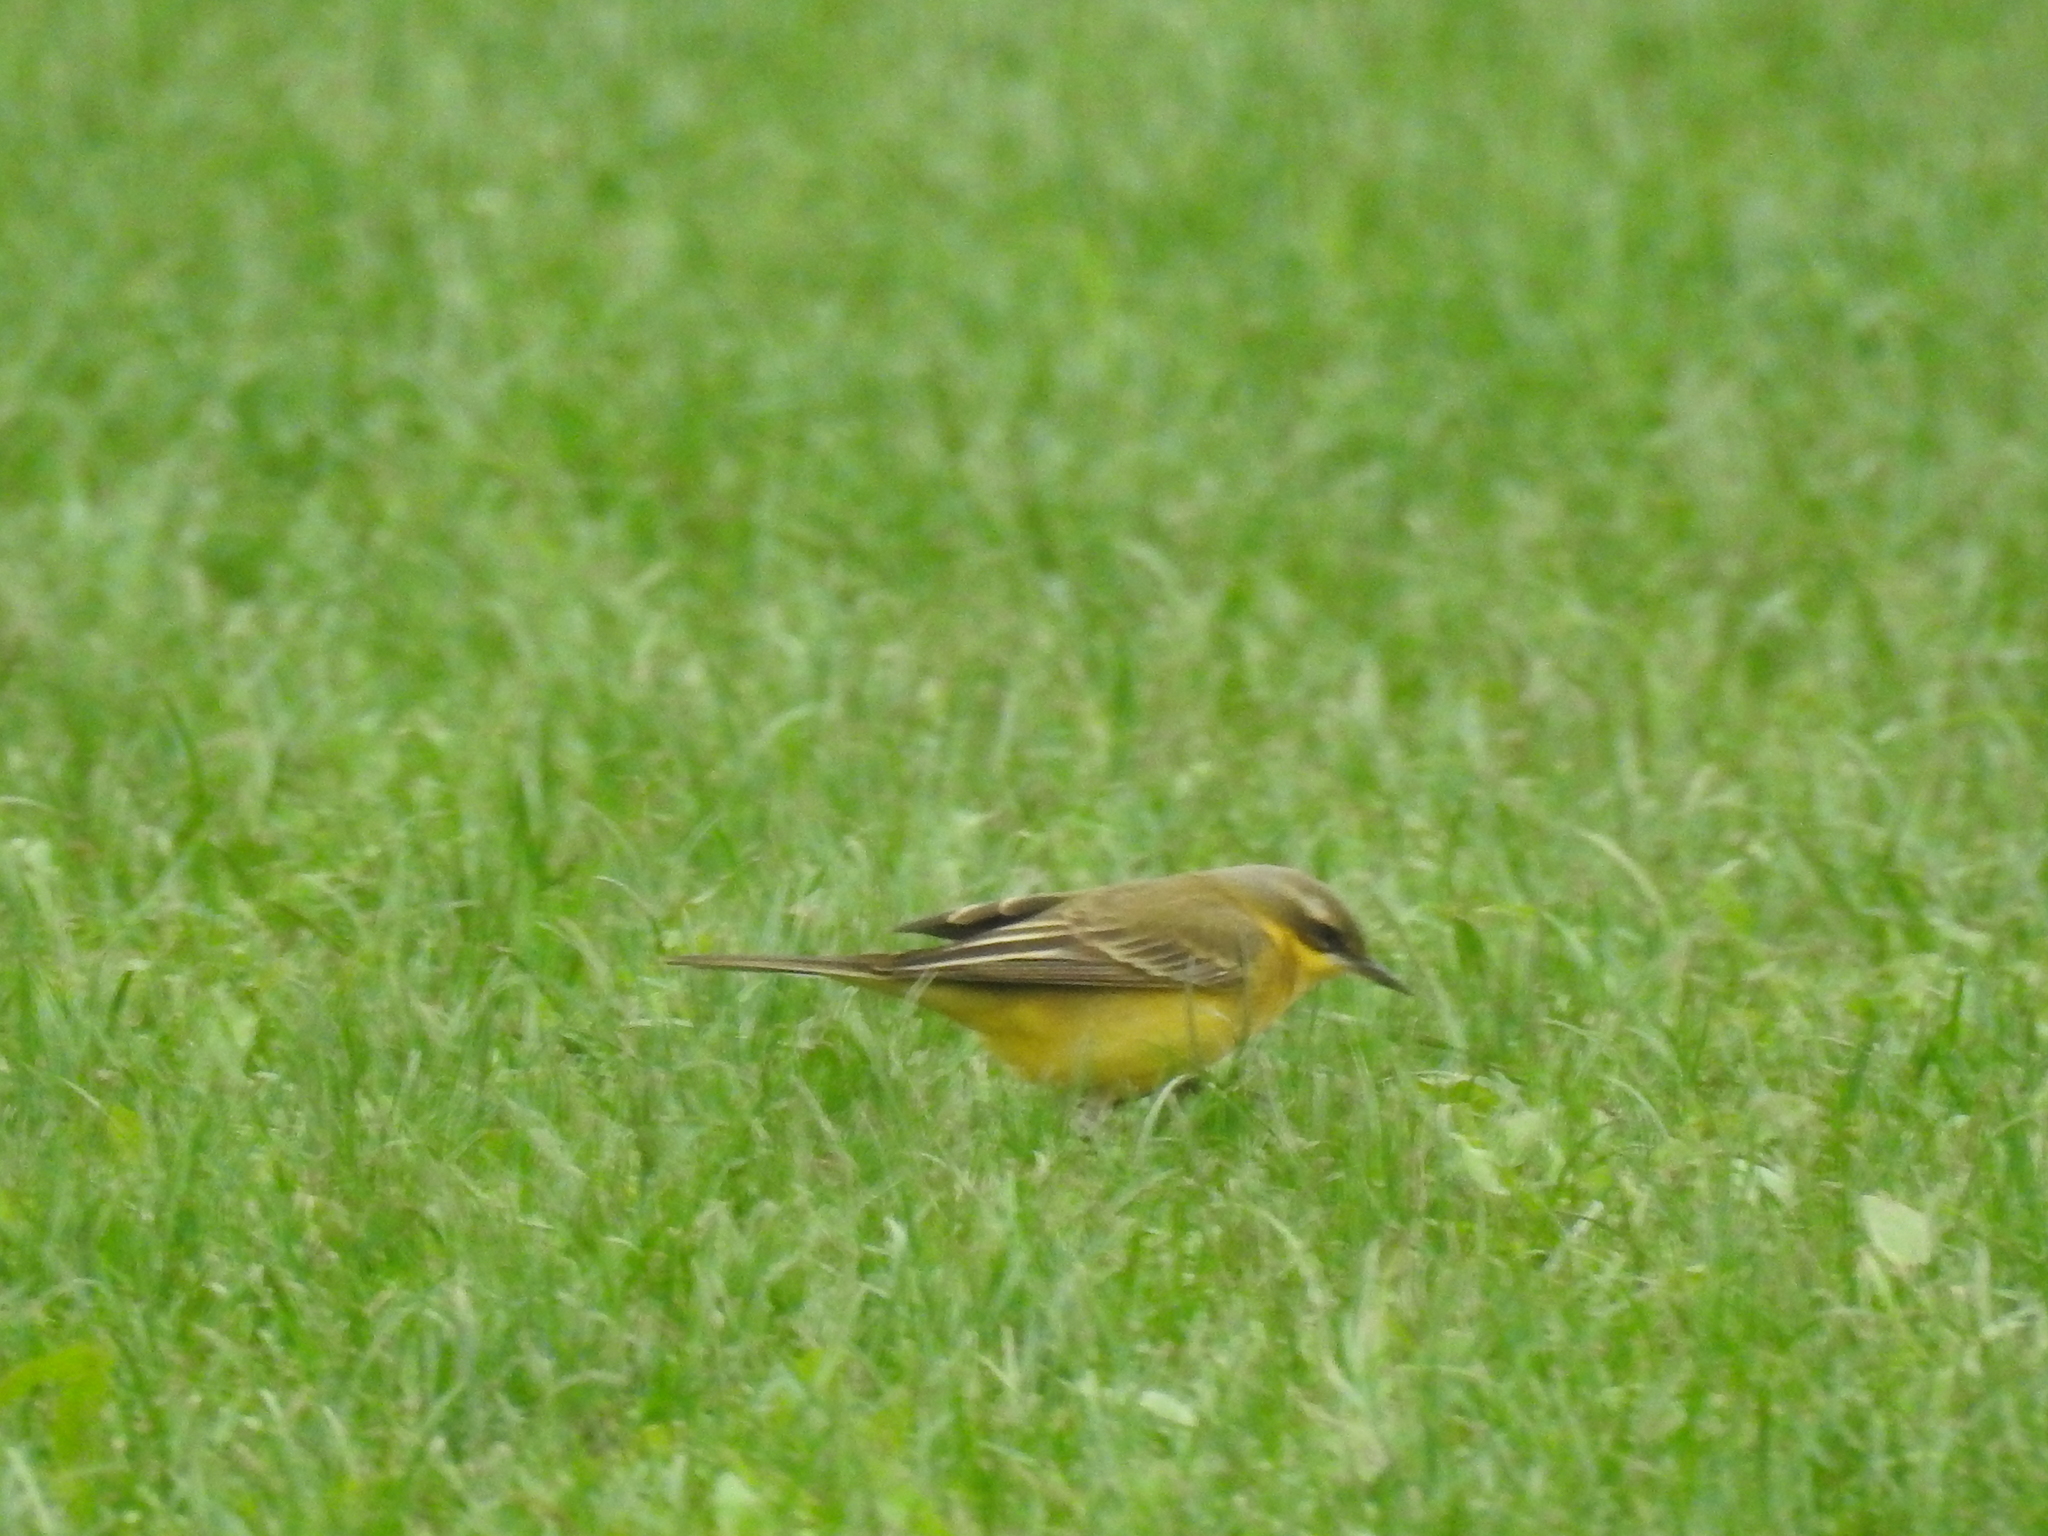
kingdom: Animalia
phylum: Chordata
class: Aves
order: Passeriformes
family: Motacillidae
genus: Motacilla
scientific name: Motacilla tschutschensis
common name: Eastern yellow wagtail
